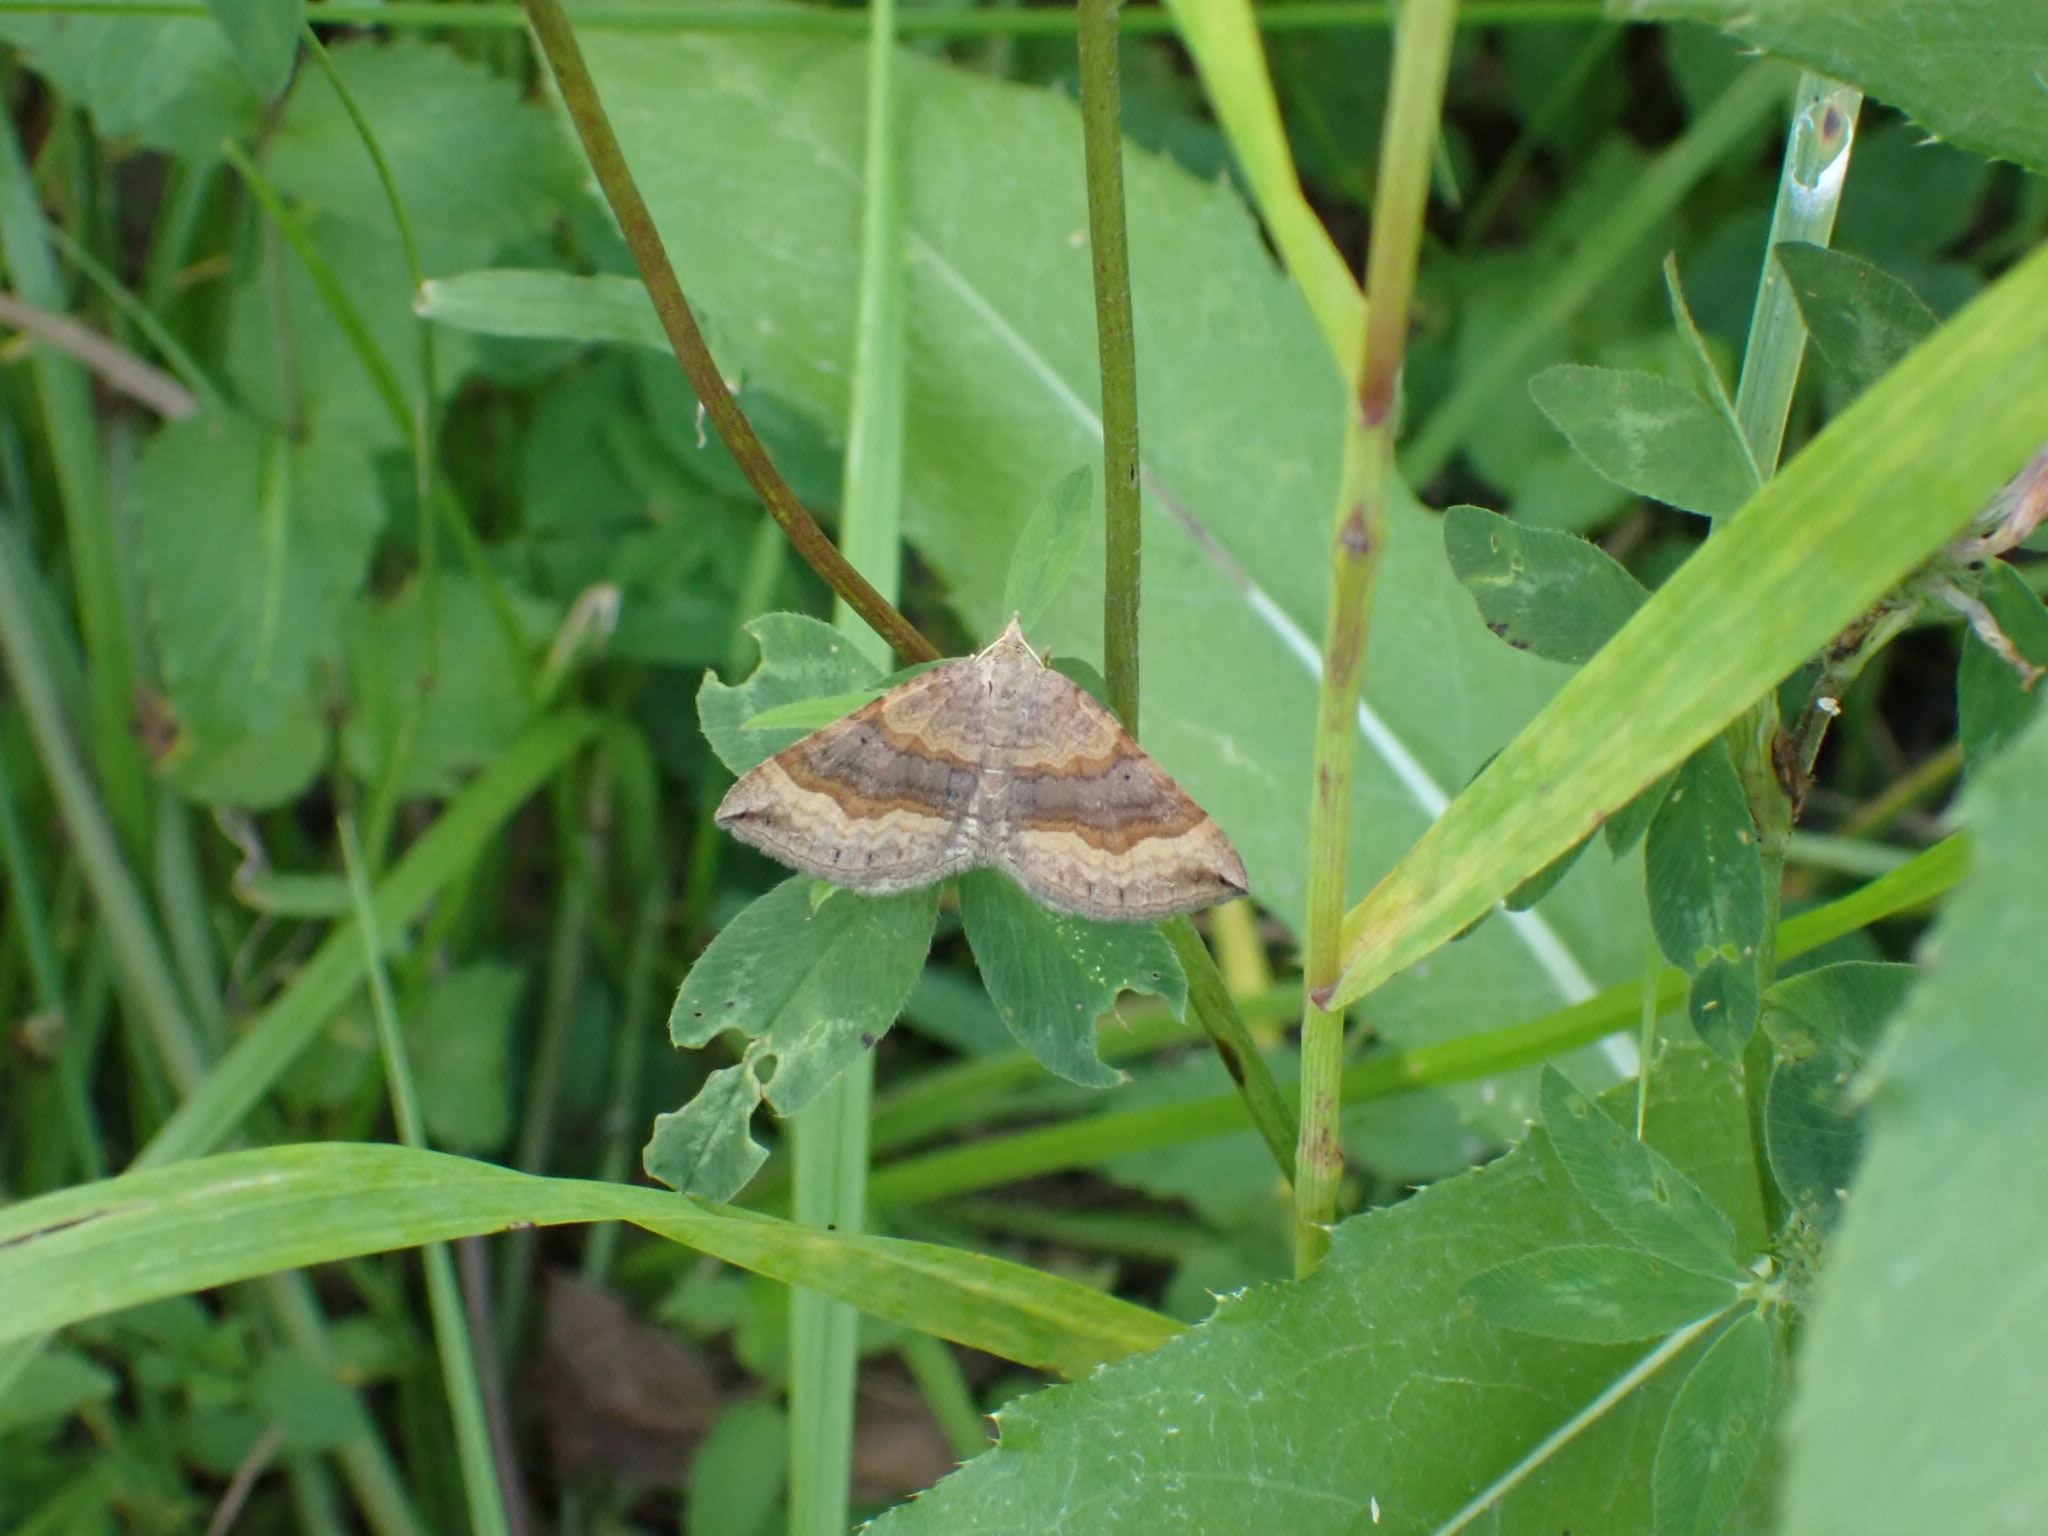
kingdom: Animalia
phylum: Arthropoda
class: Insecta
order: Lepidoptera
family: Geometridae
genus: Scotopteryx
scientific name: Scotopteryx chenopodiata
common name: Shaded broad-bar
